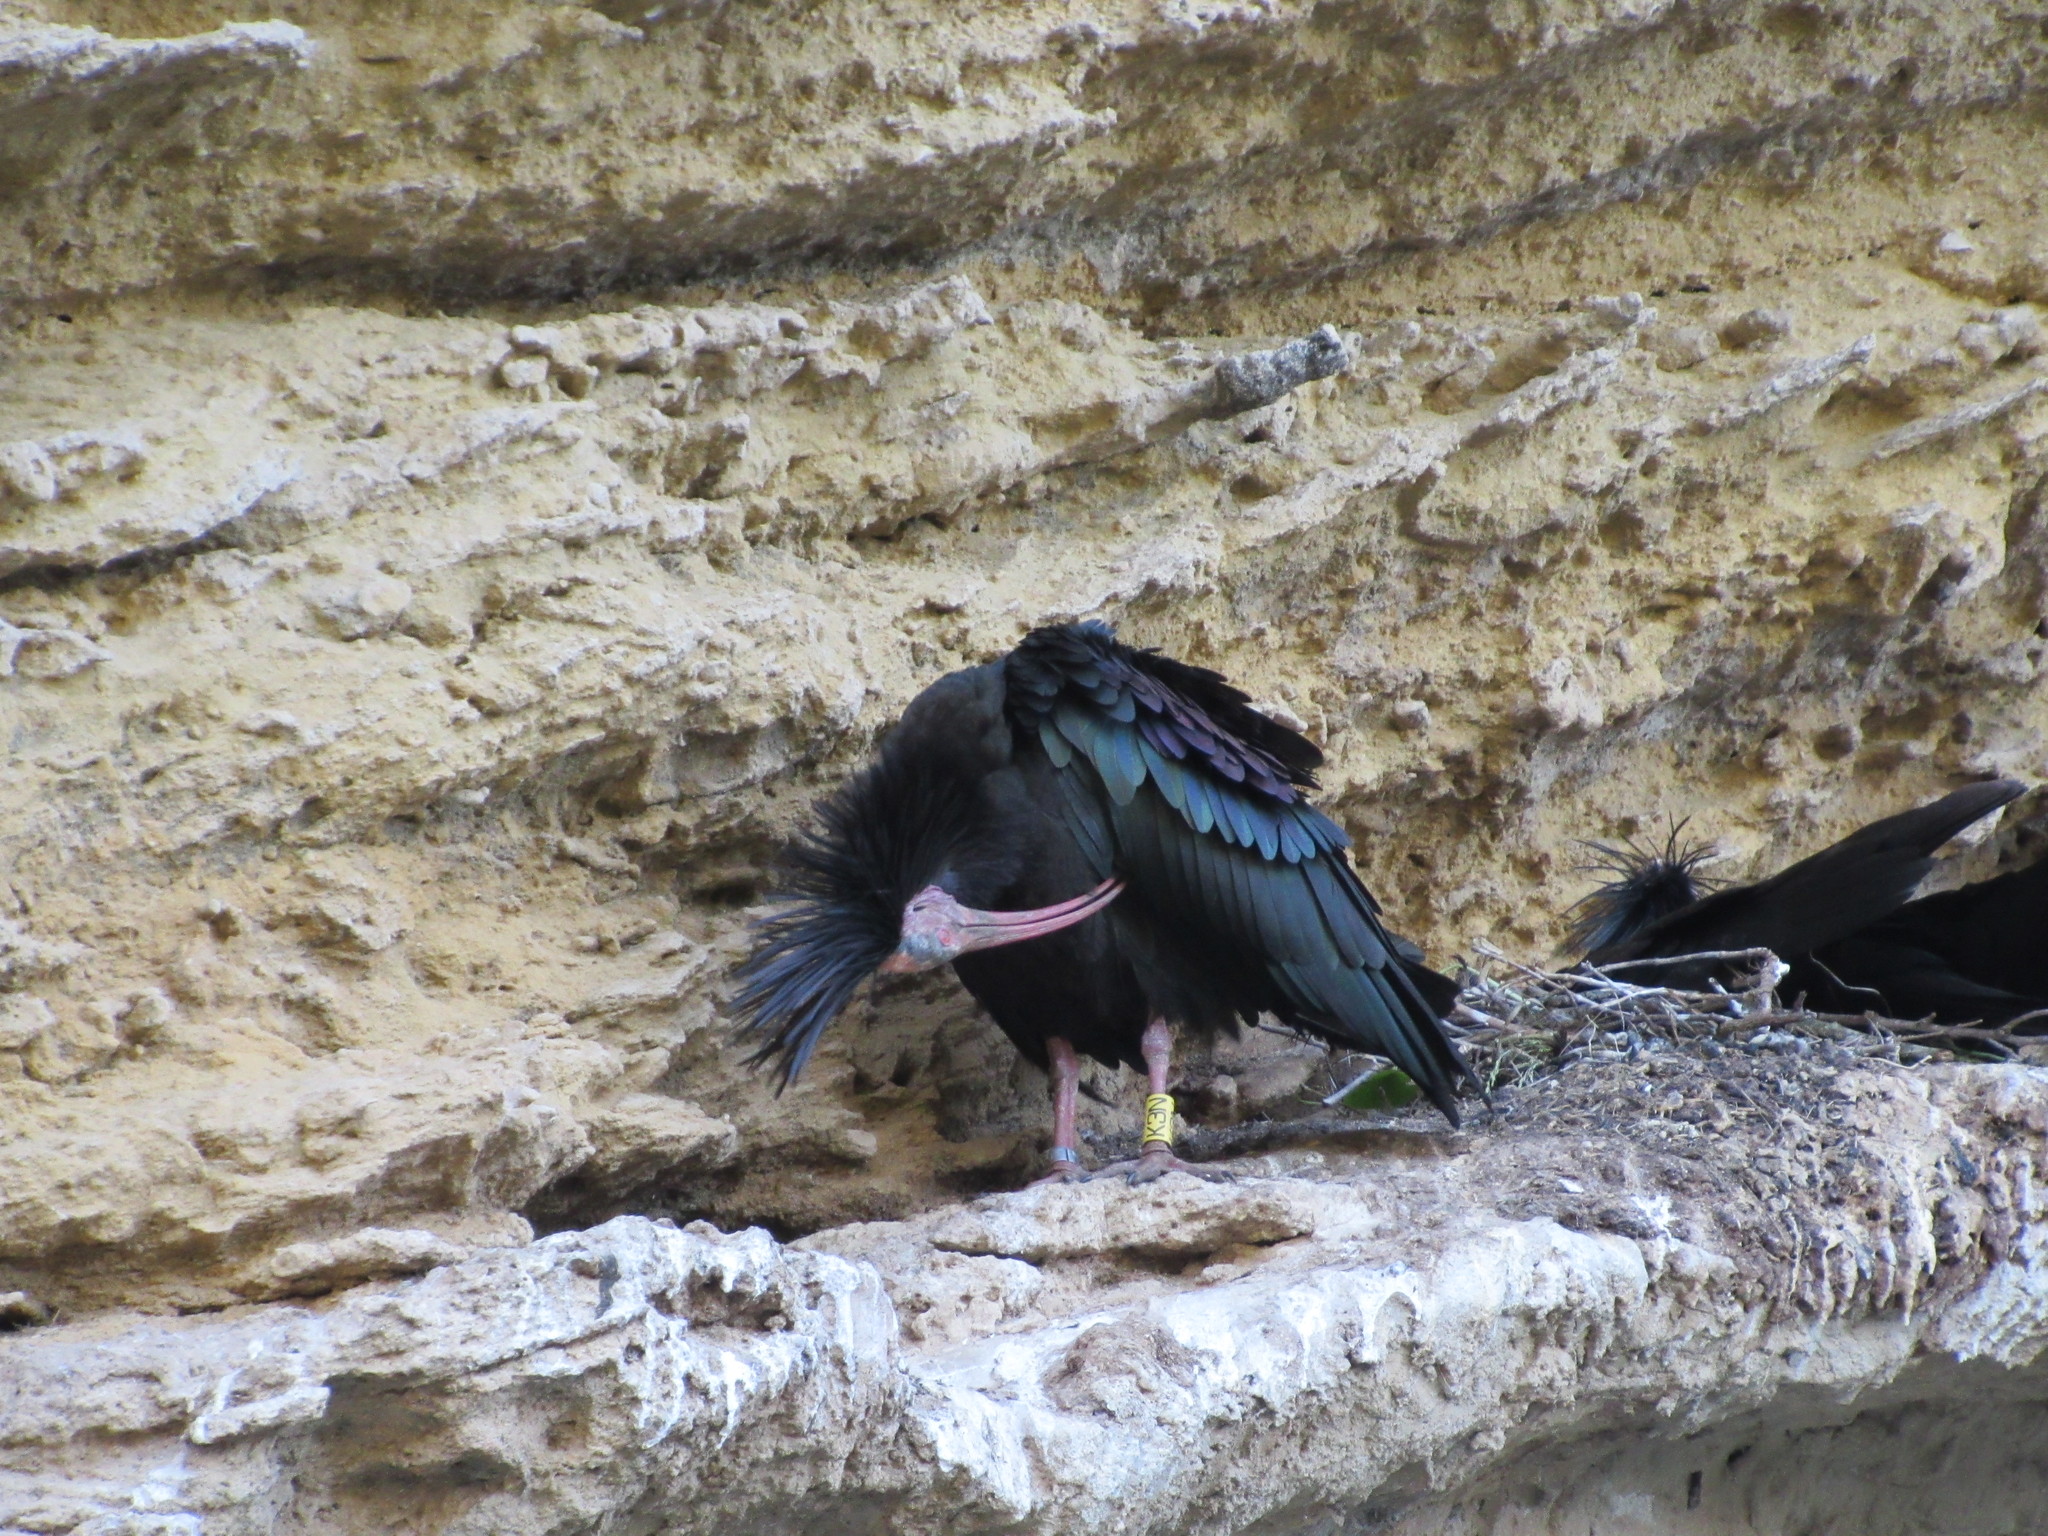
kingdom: Animalia
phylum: Chordata
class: Aves
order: Pelecaniformes
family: Threskiornithidae
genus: Geronticus
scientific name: Geronticus eremita
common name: Northern bald ibis
